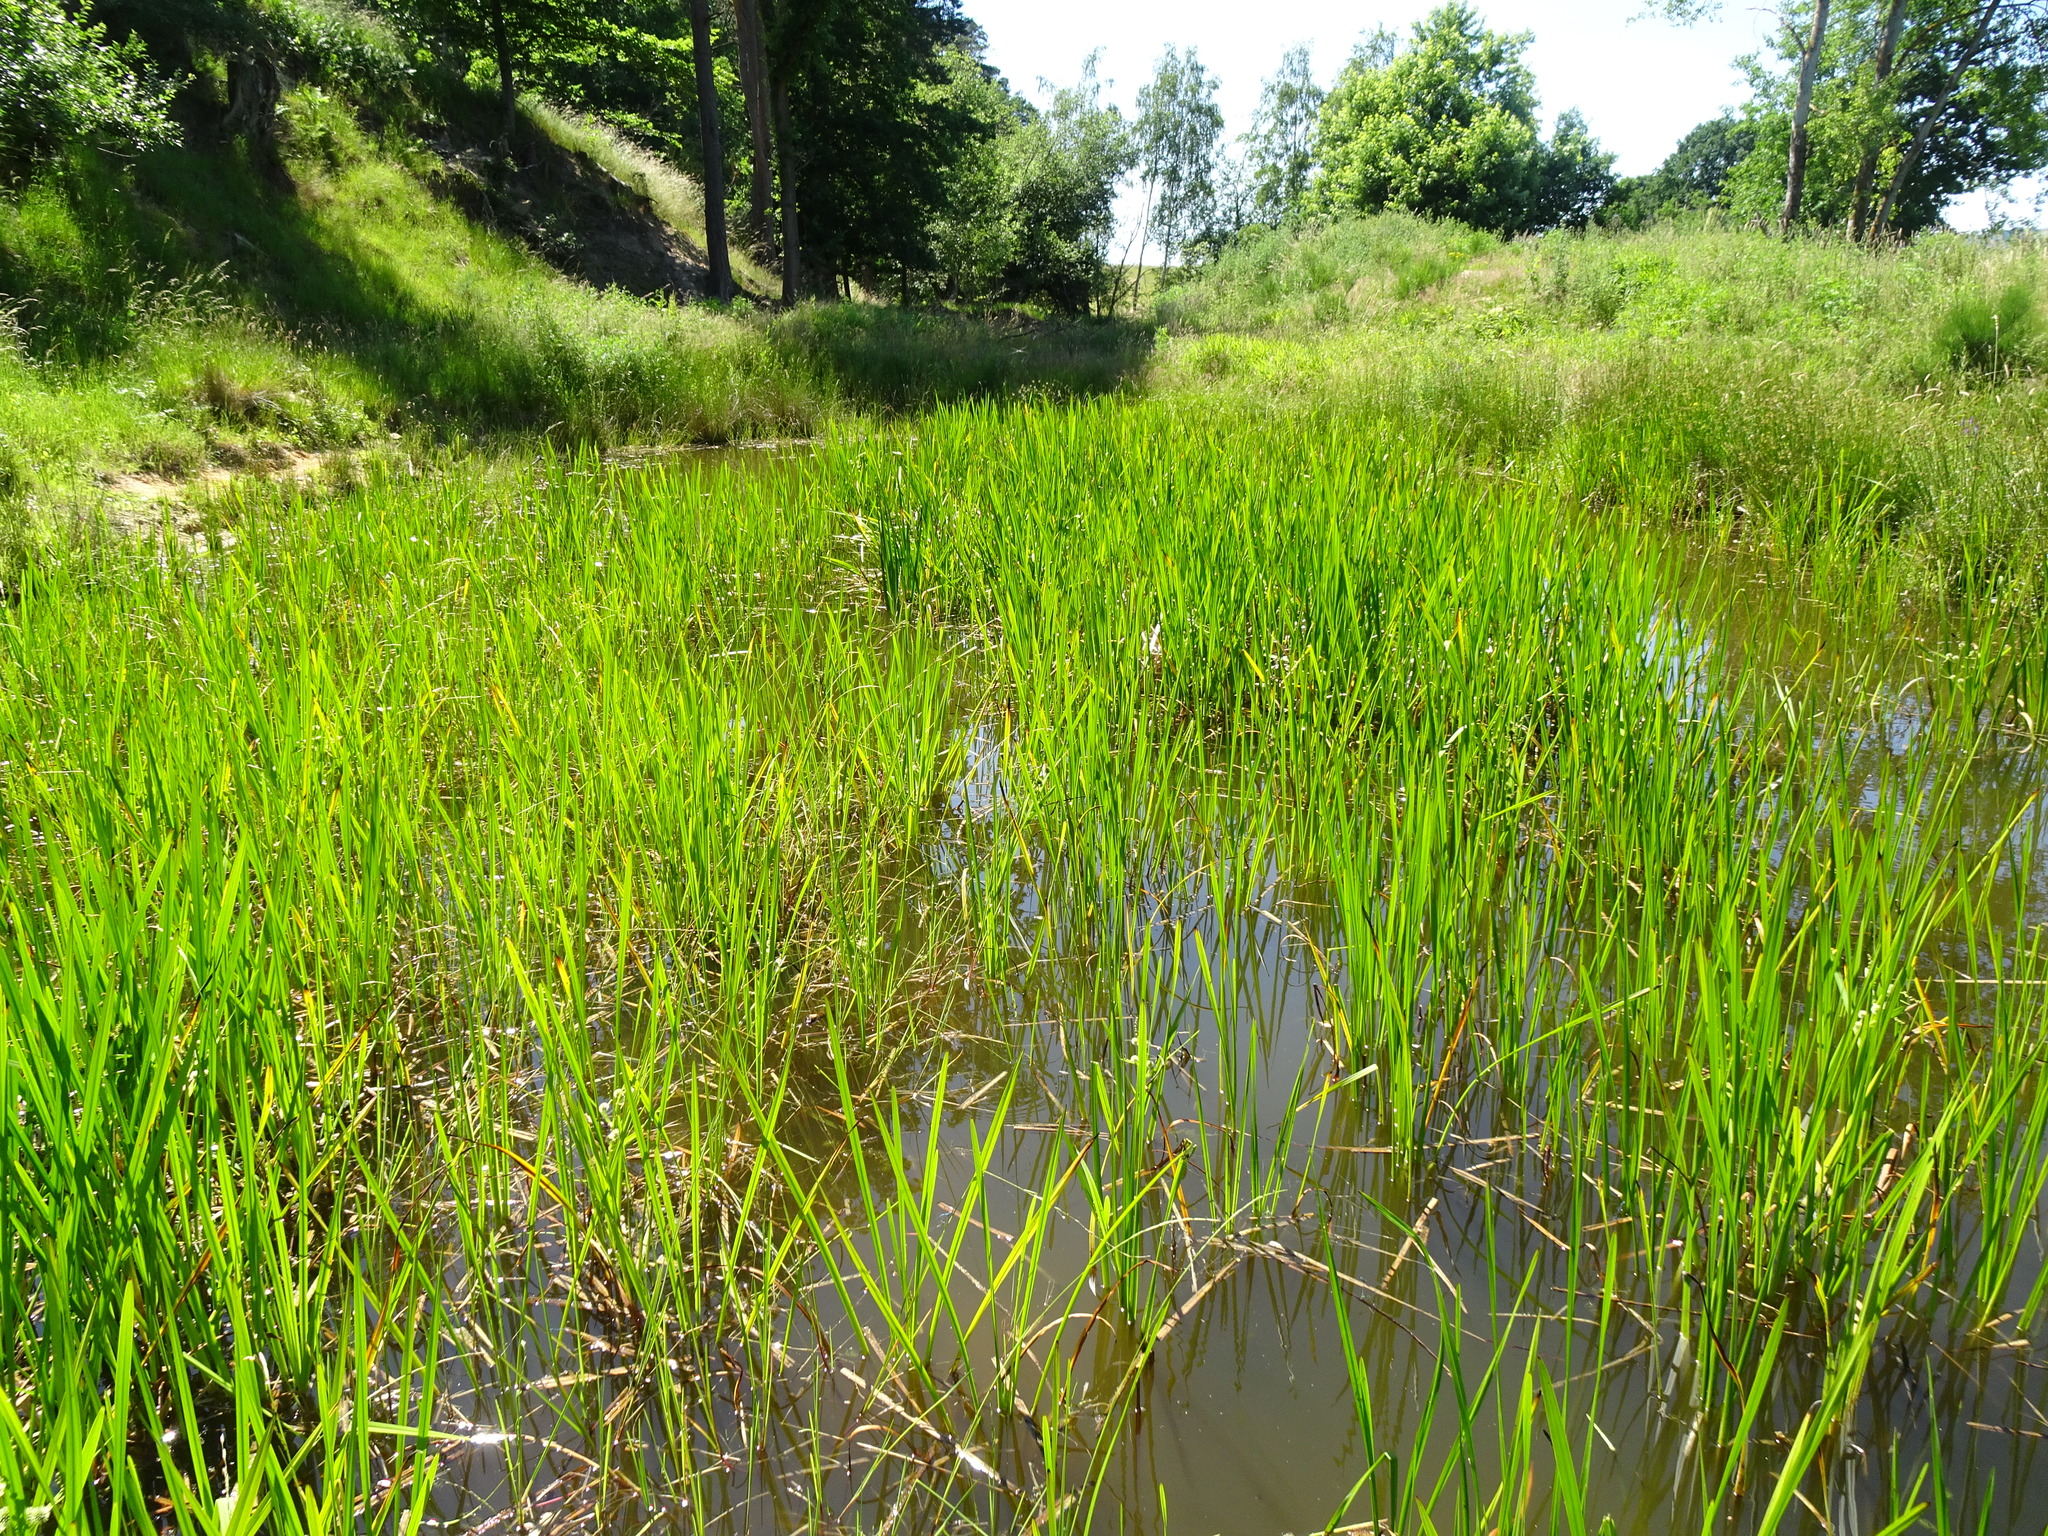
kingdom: Plantae
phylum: Tracheophyta
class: Liliopsida
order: Poales
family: Typhaceae
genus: Sparganium
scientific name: Sparganium erectum
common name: Branched bur-reed
